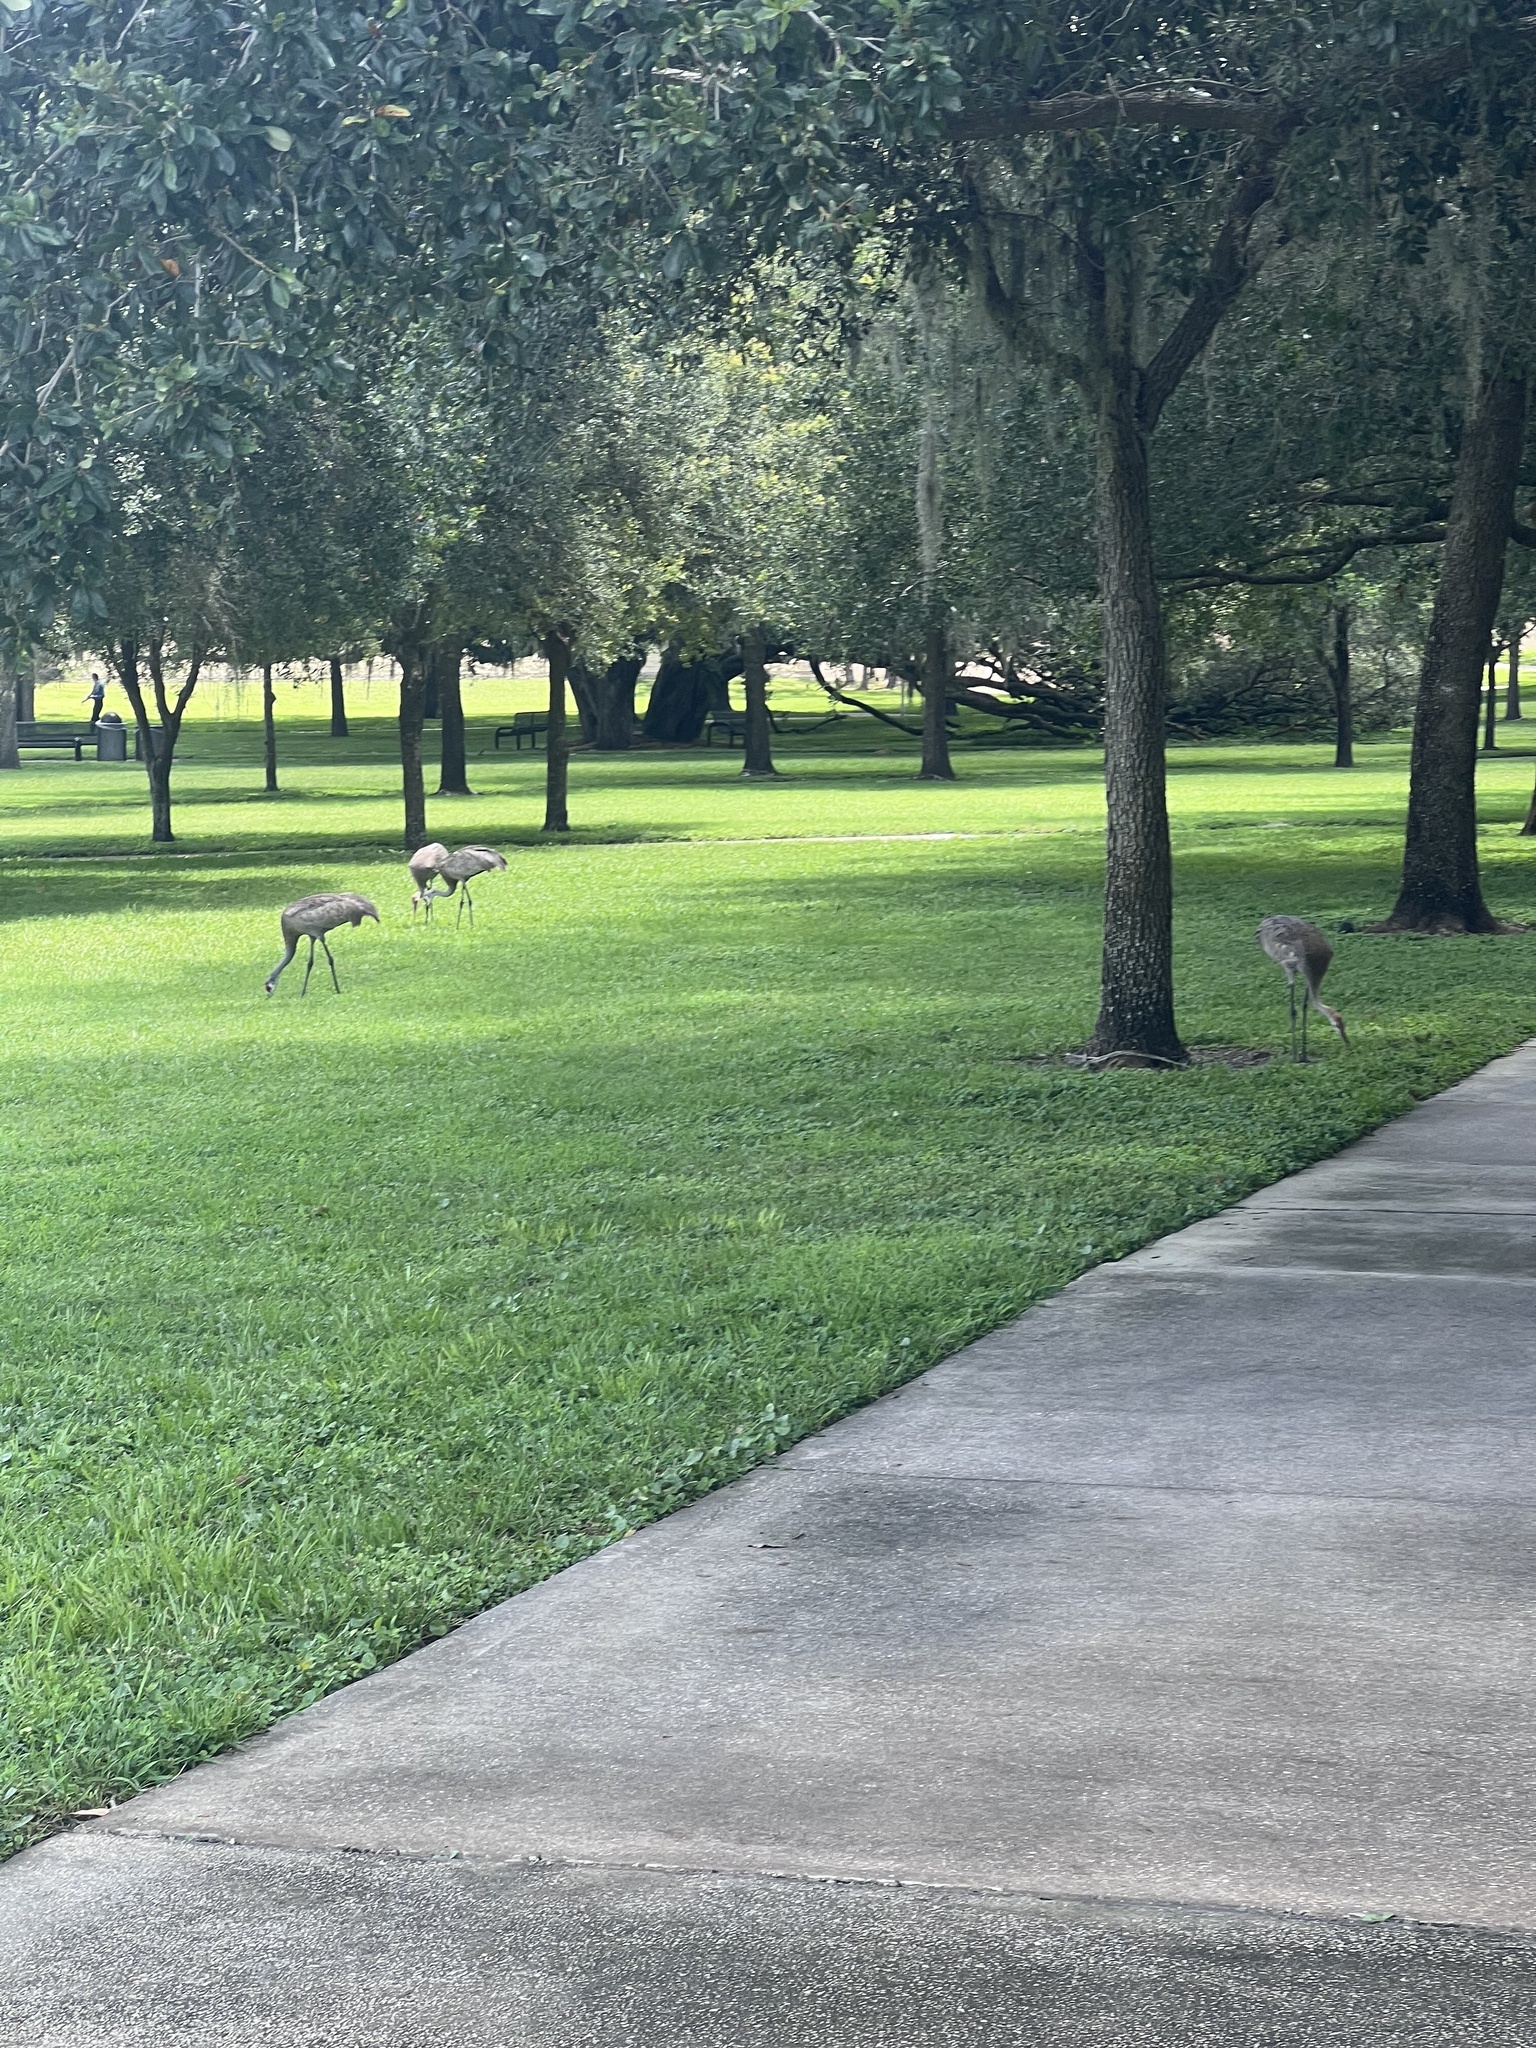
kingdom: Animalia
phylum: Chordata
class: Aves
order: Gruiformes
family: Gruidae
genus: Grus
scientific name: Grus canadensis
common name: Sandhill crane
